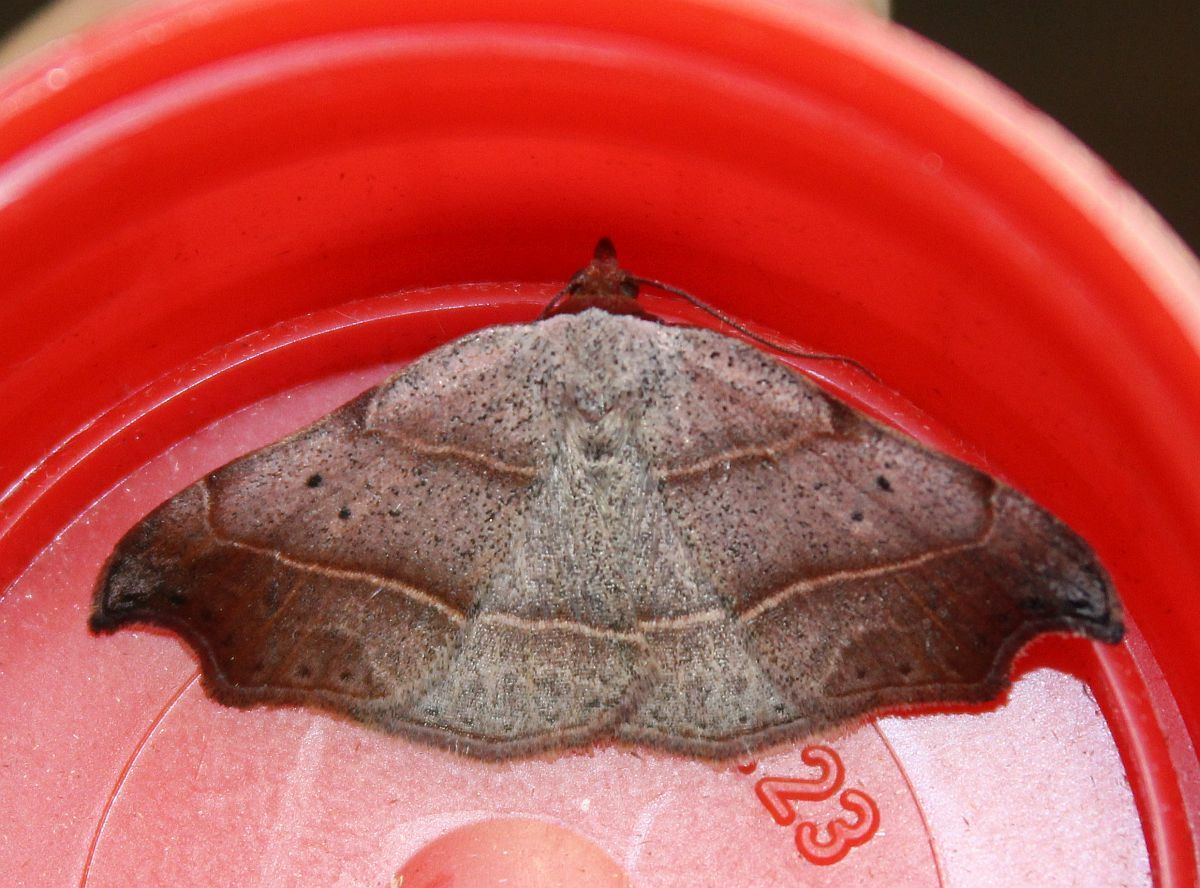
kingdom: Animalia
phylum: Arthropoda
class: Insecta
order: Lepidoptera
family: Erebidae
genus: Laspeyria
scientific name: Laspeyria flexula
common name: Beautiful hook-tip
